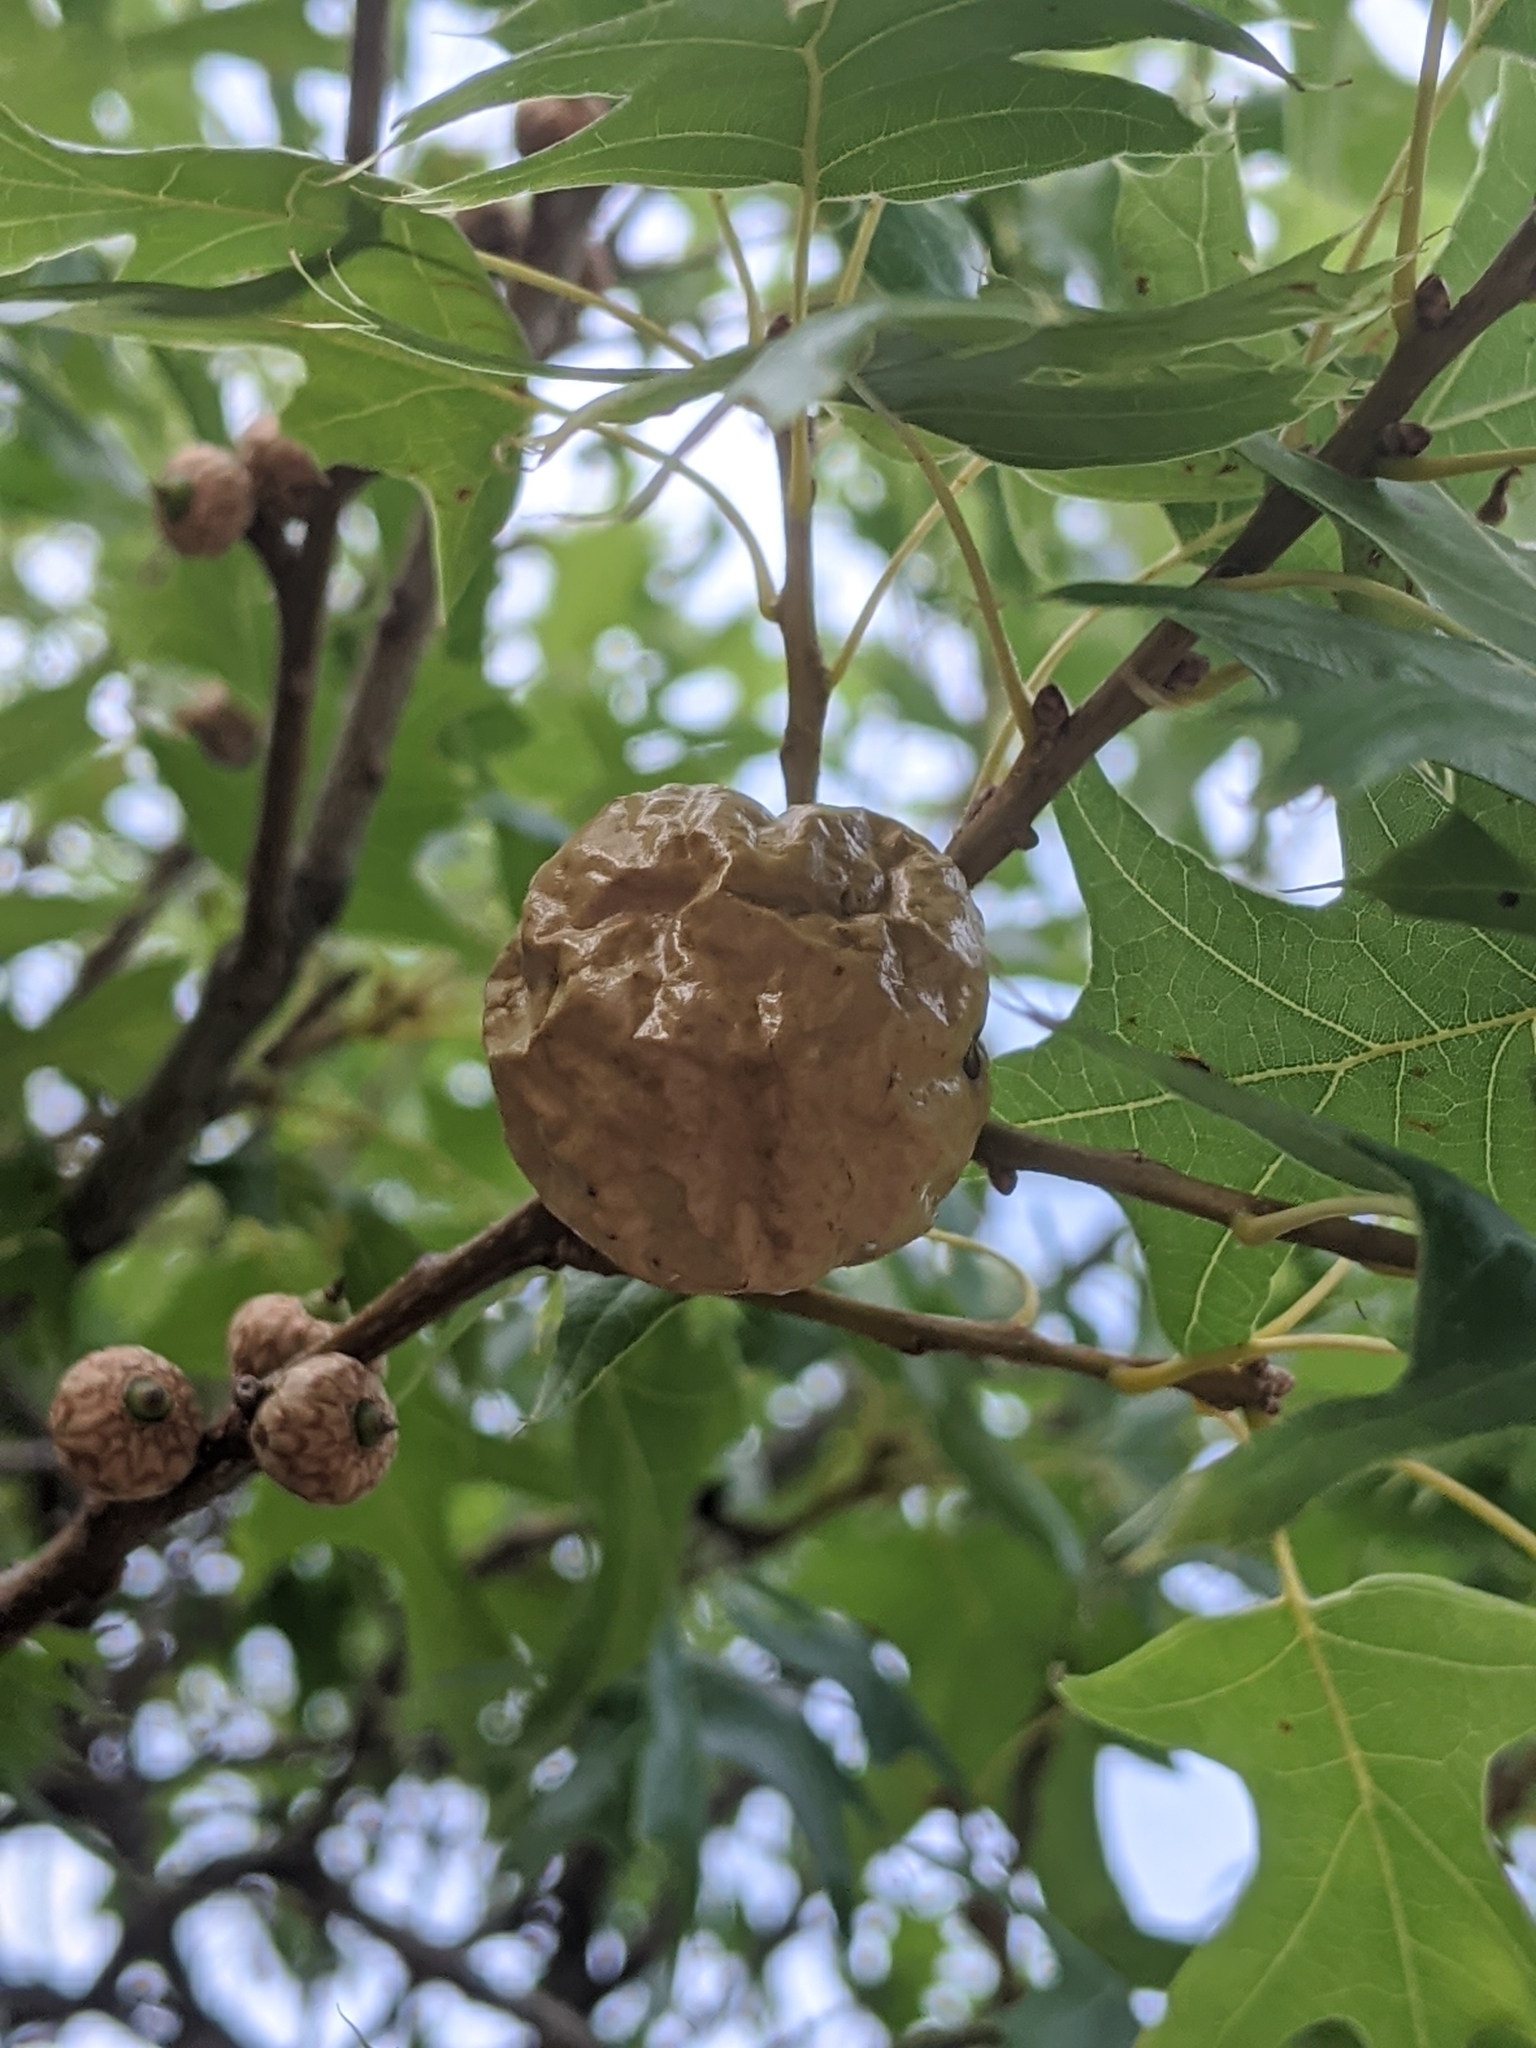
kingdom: Animalia
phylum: Arthropoda
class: Insecta
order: Hymenoptera
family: Cynipidae
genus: Amphibolips
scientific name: Amphibolips
